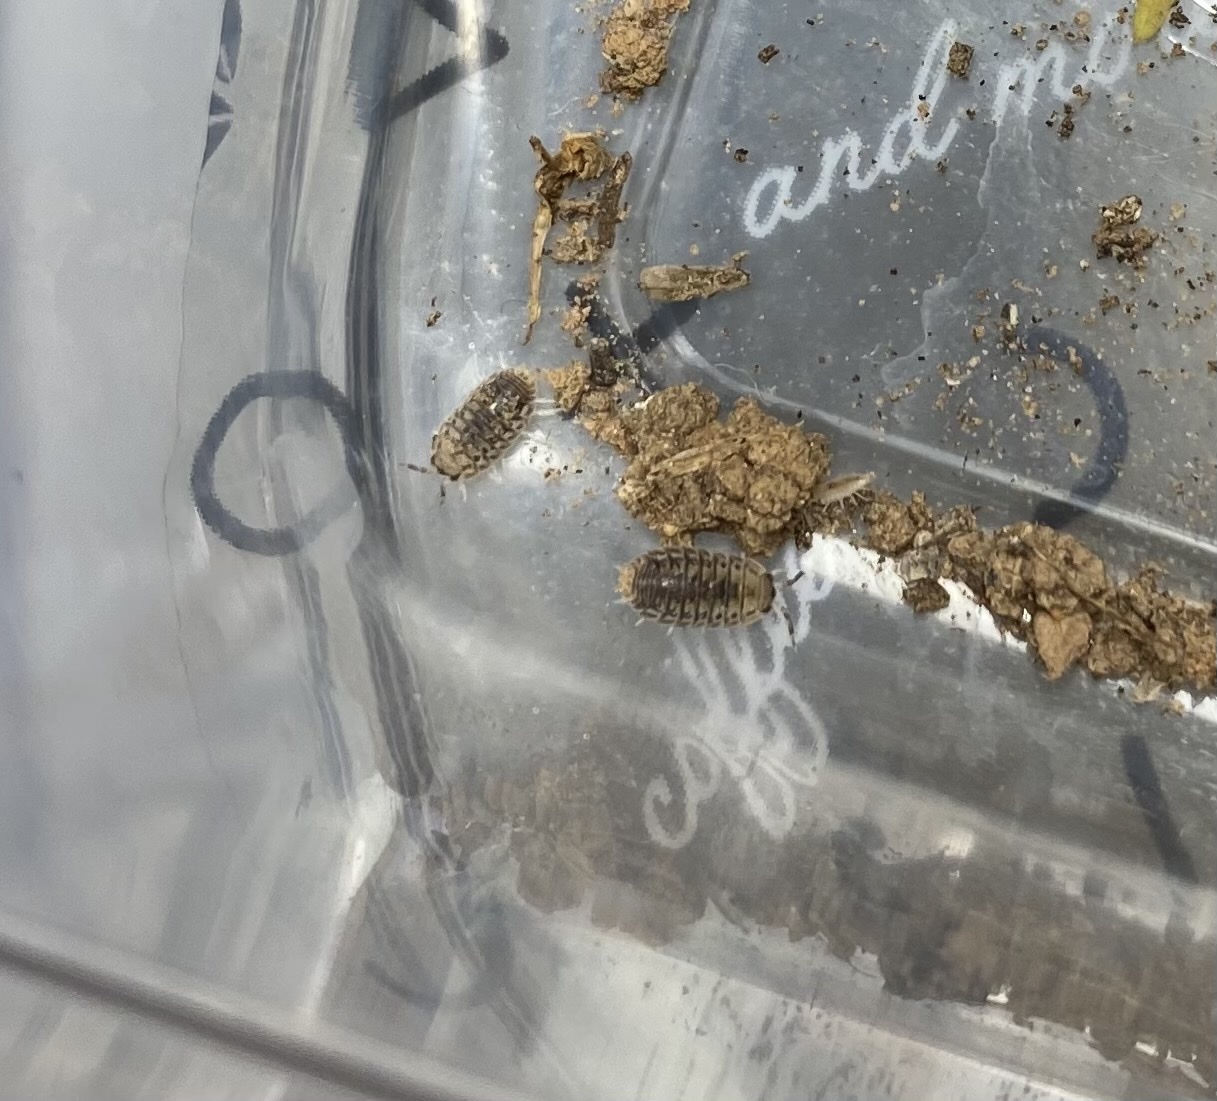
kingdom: Animalia
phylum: Arthropoda
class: Malacostraca
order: Isopoda
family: Porcellionidae
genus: Agabiformius
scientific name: Agabiformius lentus
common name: Pillbug
